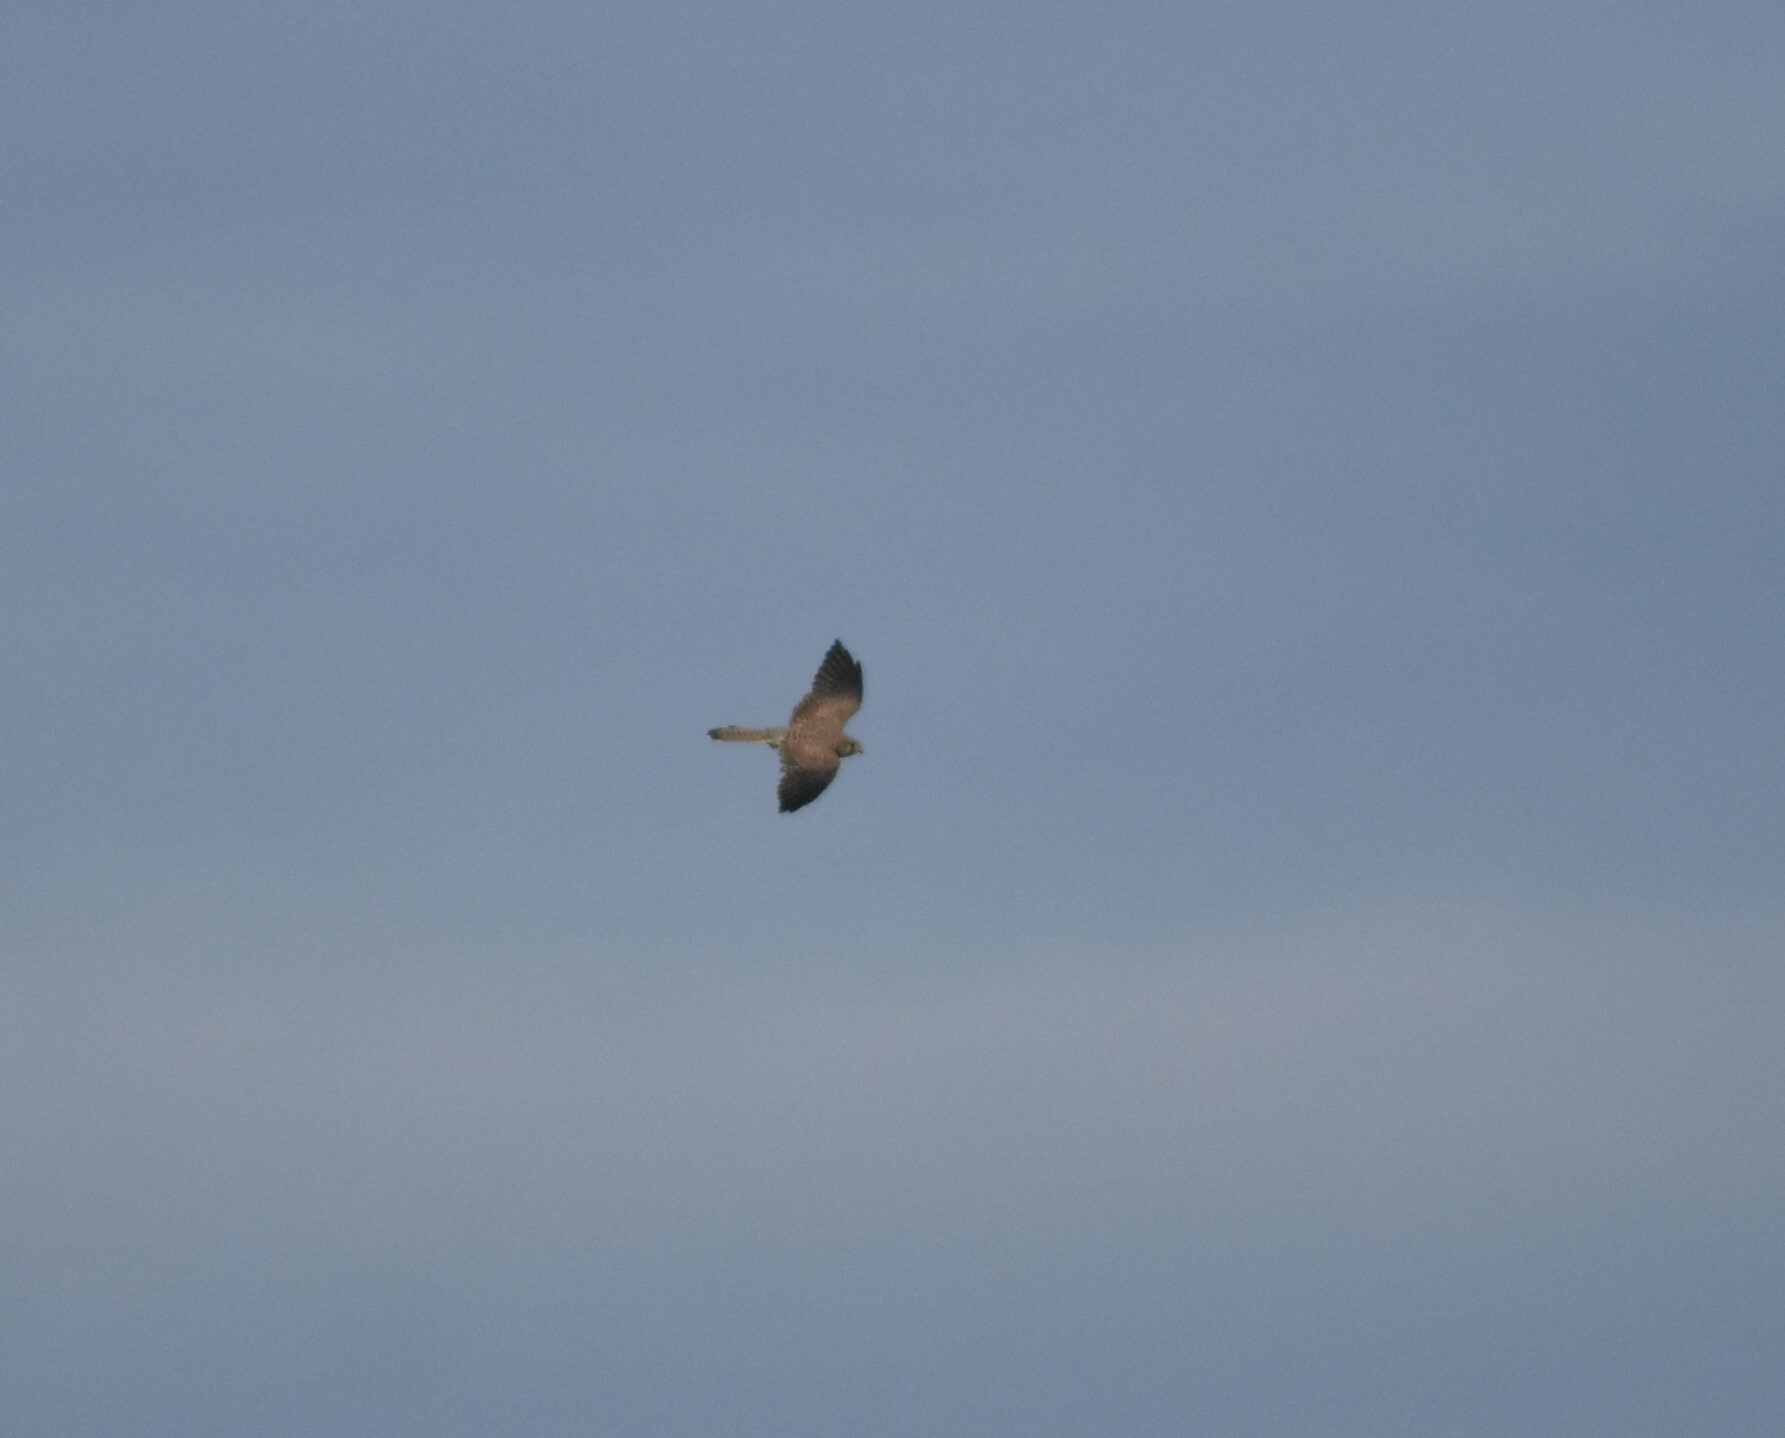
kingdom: Animalia
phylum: Chordata
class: Aves
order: Falconiformes
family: Falconidae
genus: Falco
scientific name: Falco tinnunculus
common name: Common kestrel
